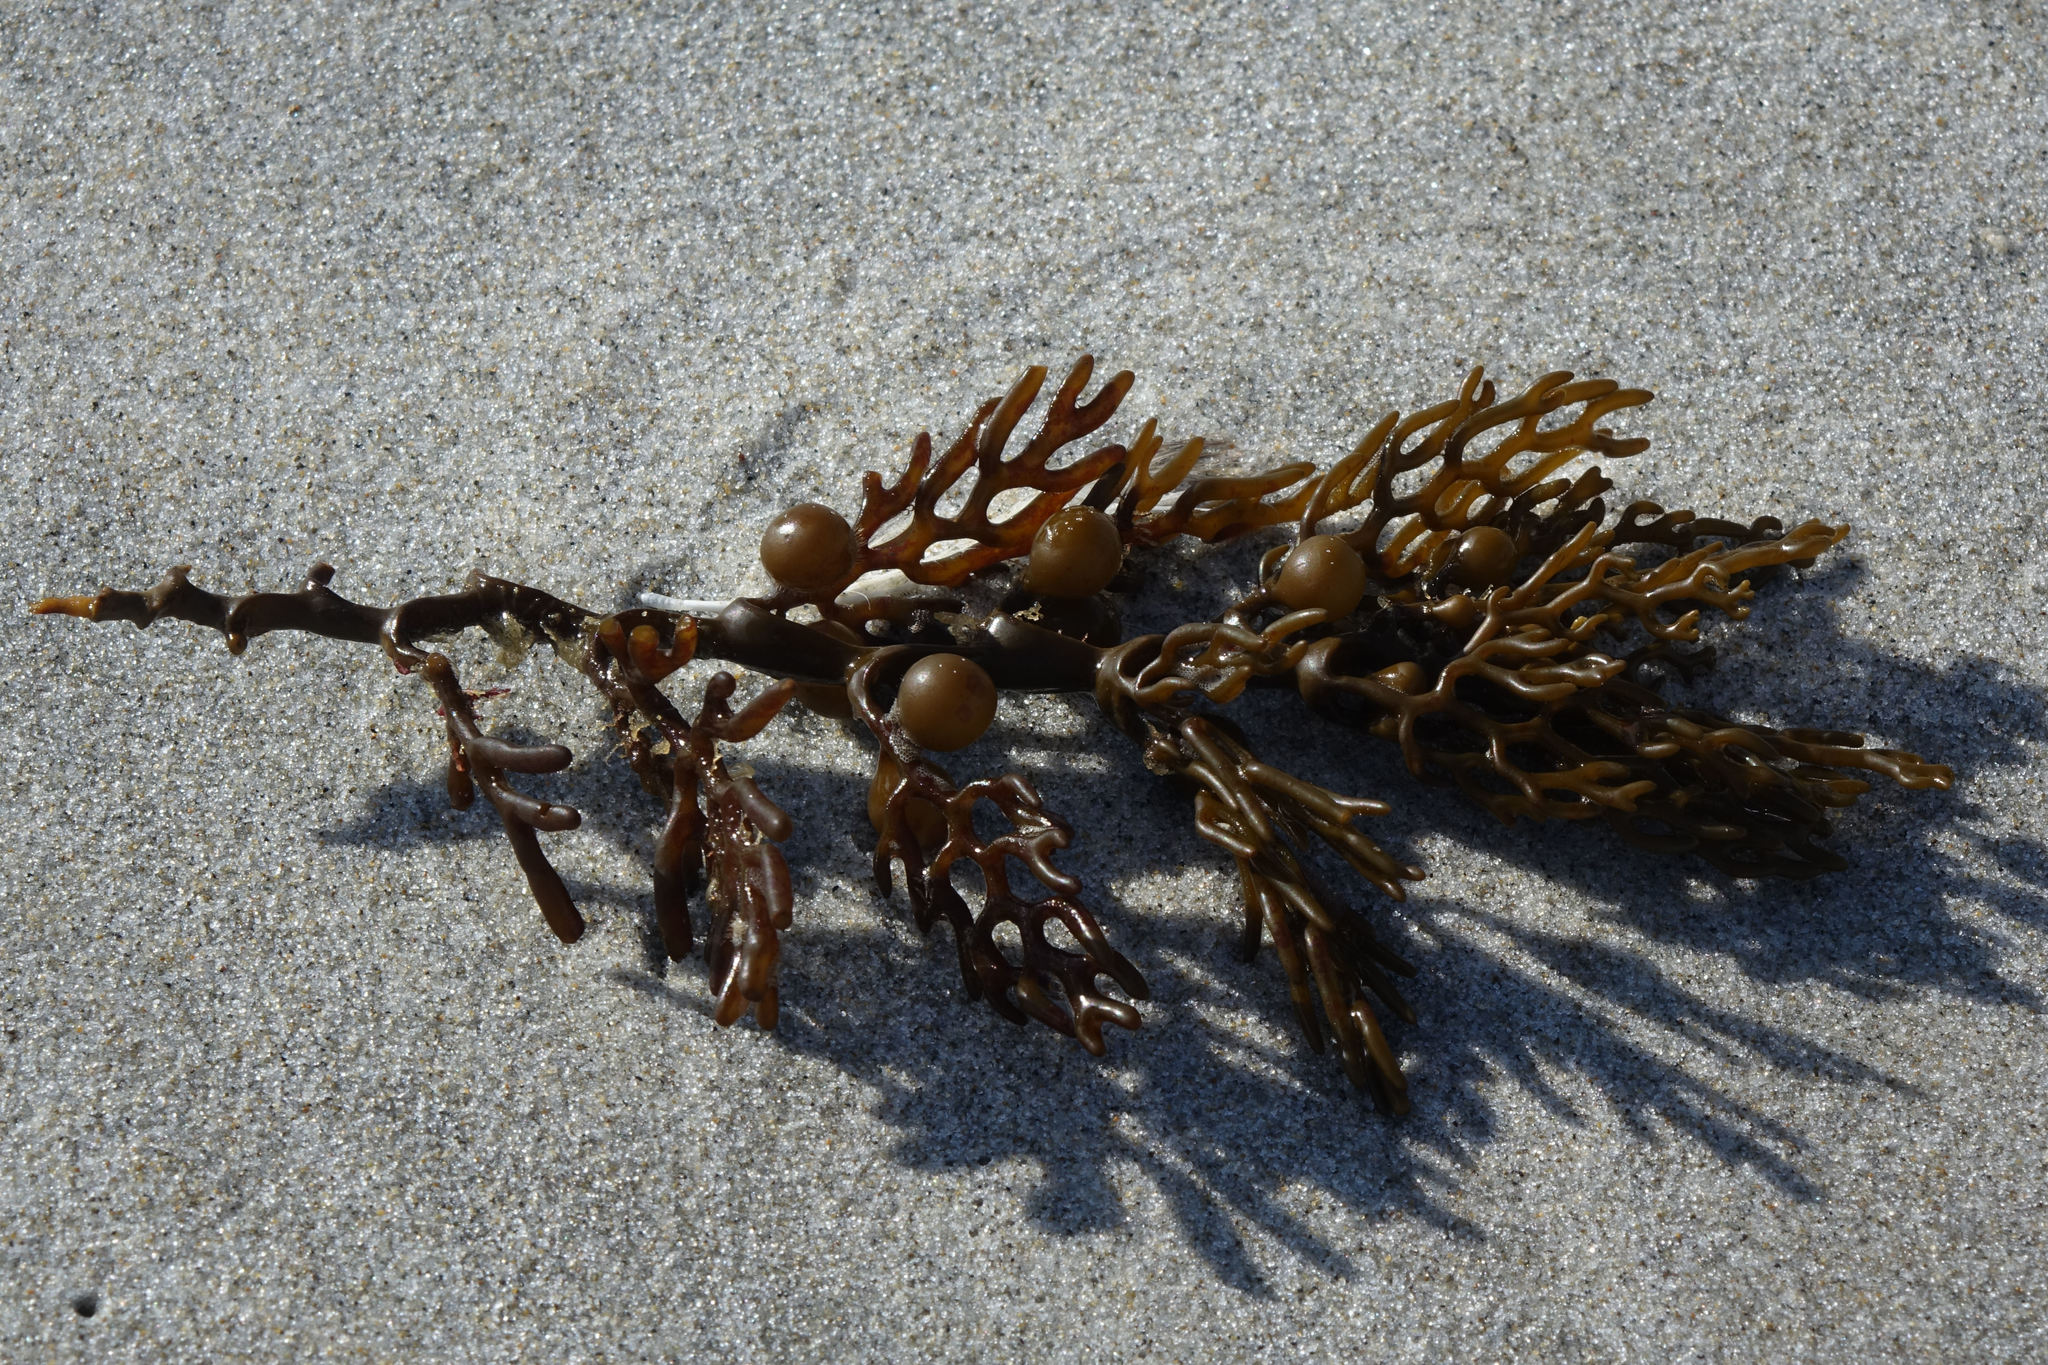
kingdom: Chromista
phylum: Ochrophyta
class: Phaeophyceae
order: Fucales
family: Sargassaceae
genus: Cystophora
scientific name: Cystophora retroflexa
